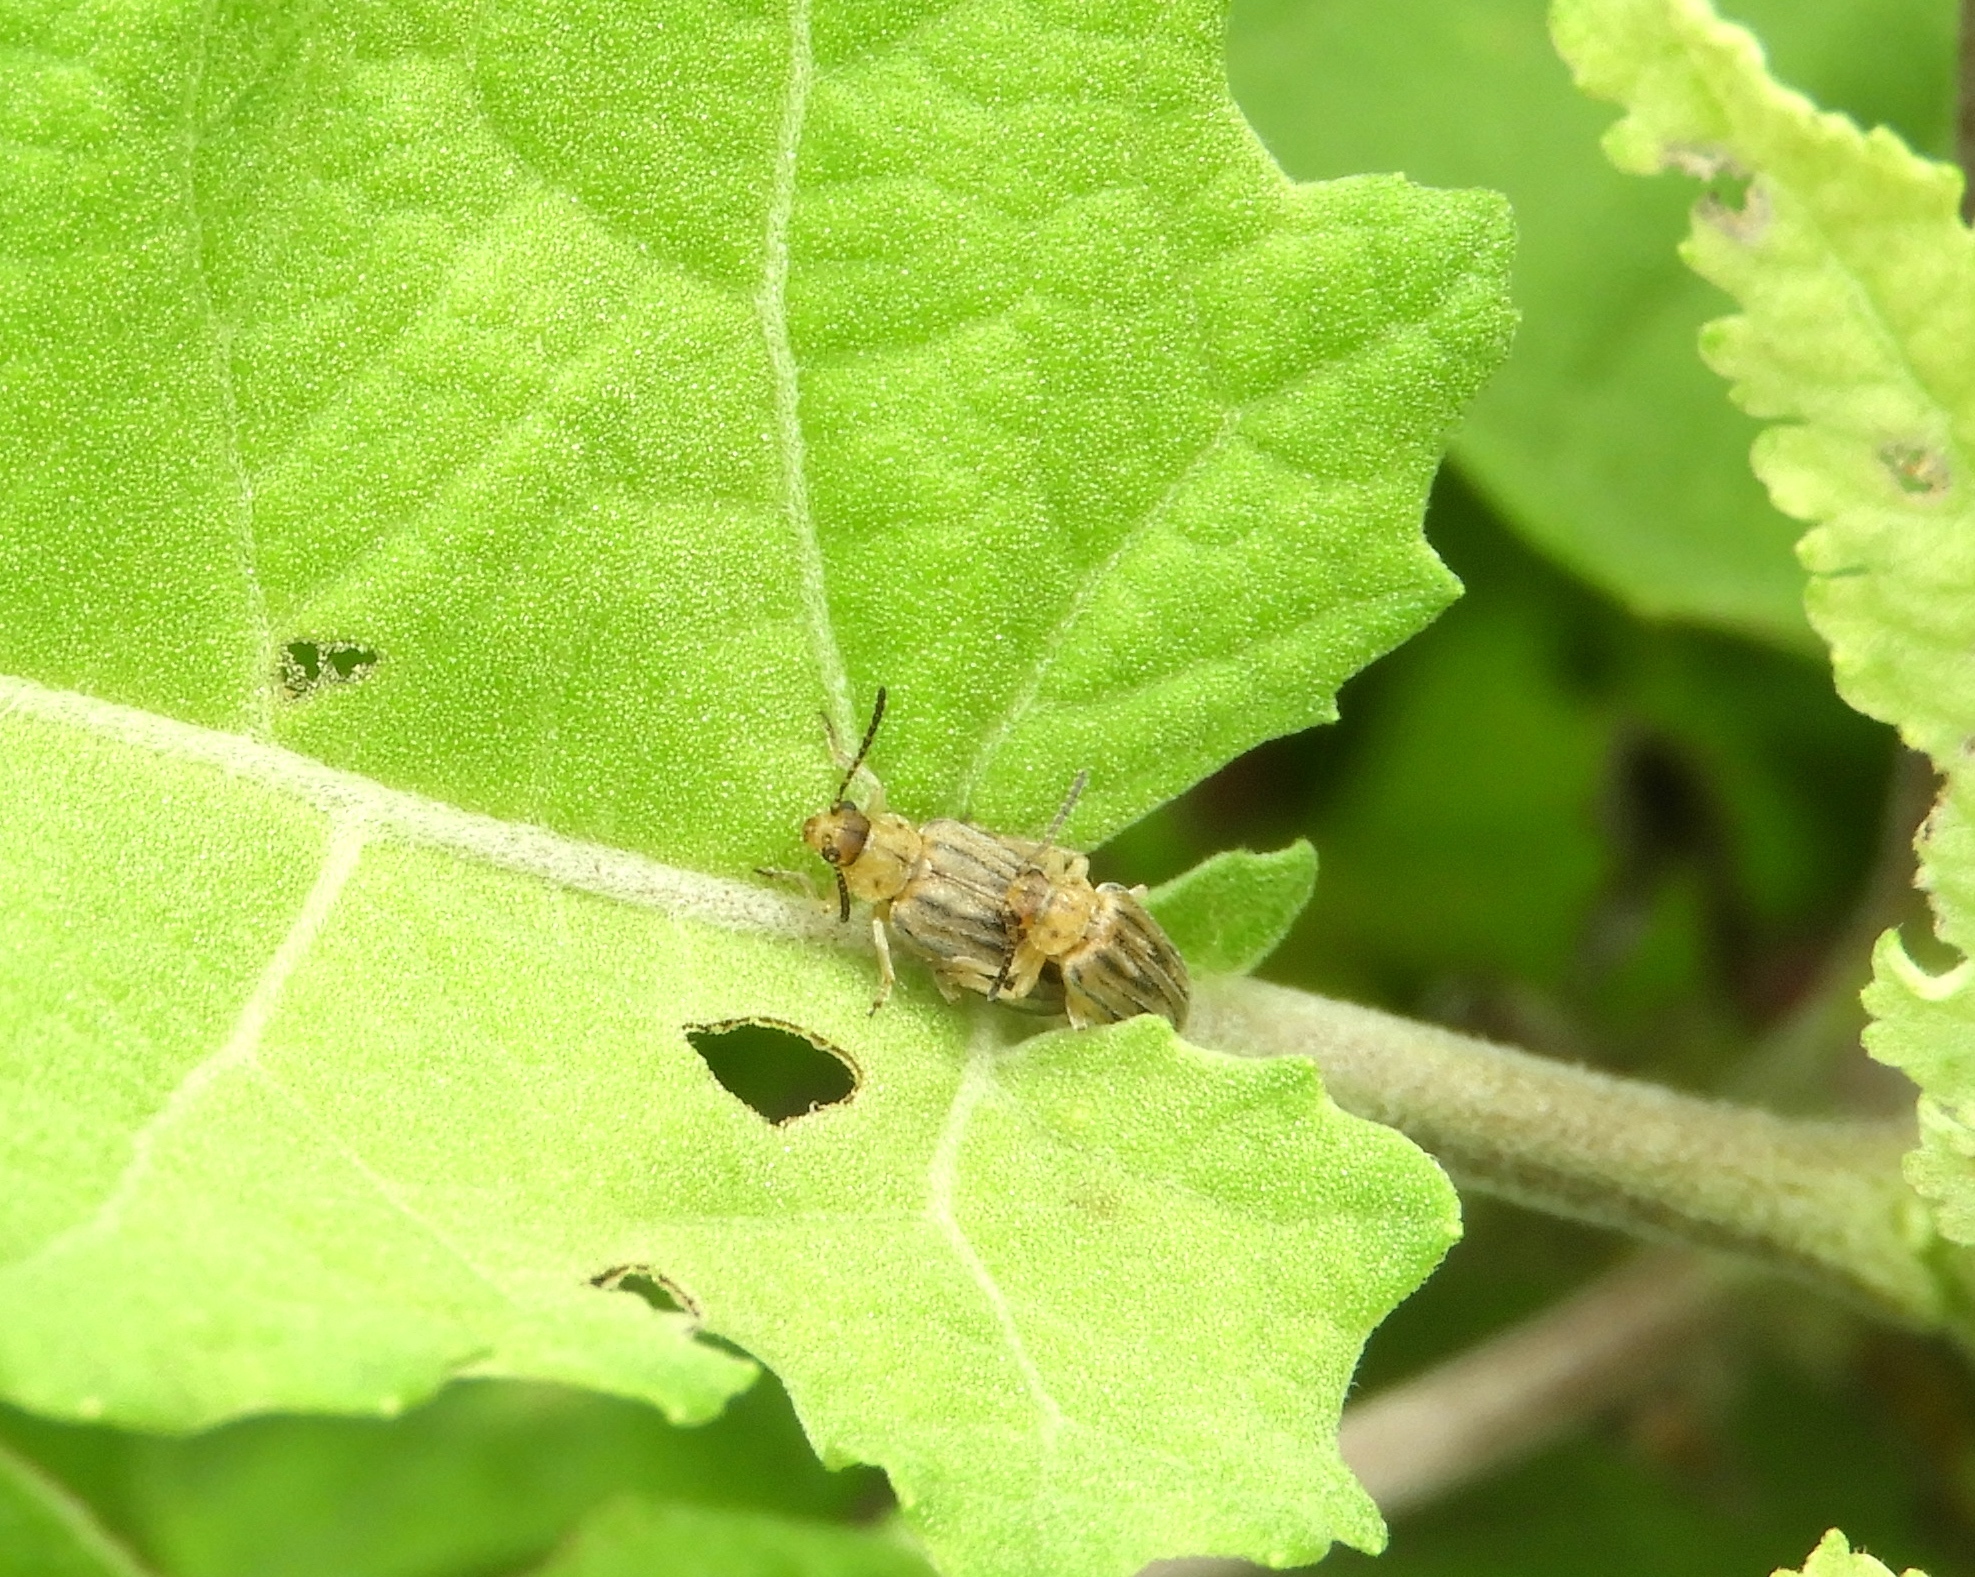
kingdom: Animalia
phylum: Arthropoda
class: Insecta
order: Coleoptera
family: Chrysomelidae
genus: Ophraella
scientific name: Ophraella communa
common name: Ragweed leaf beetle
